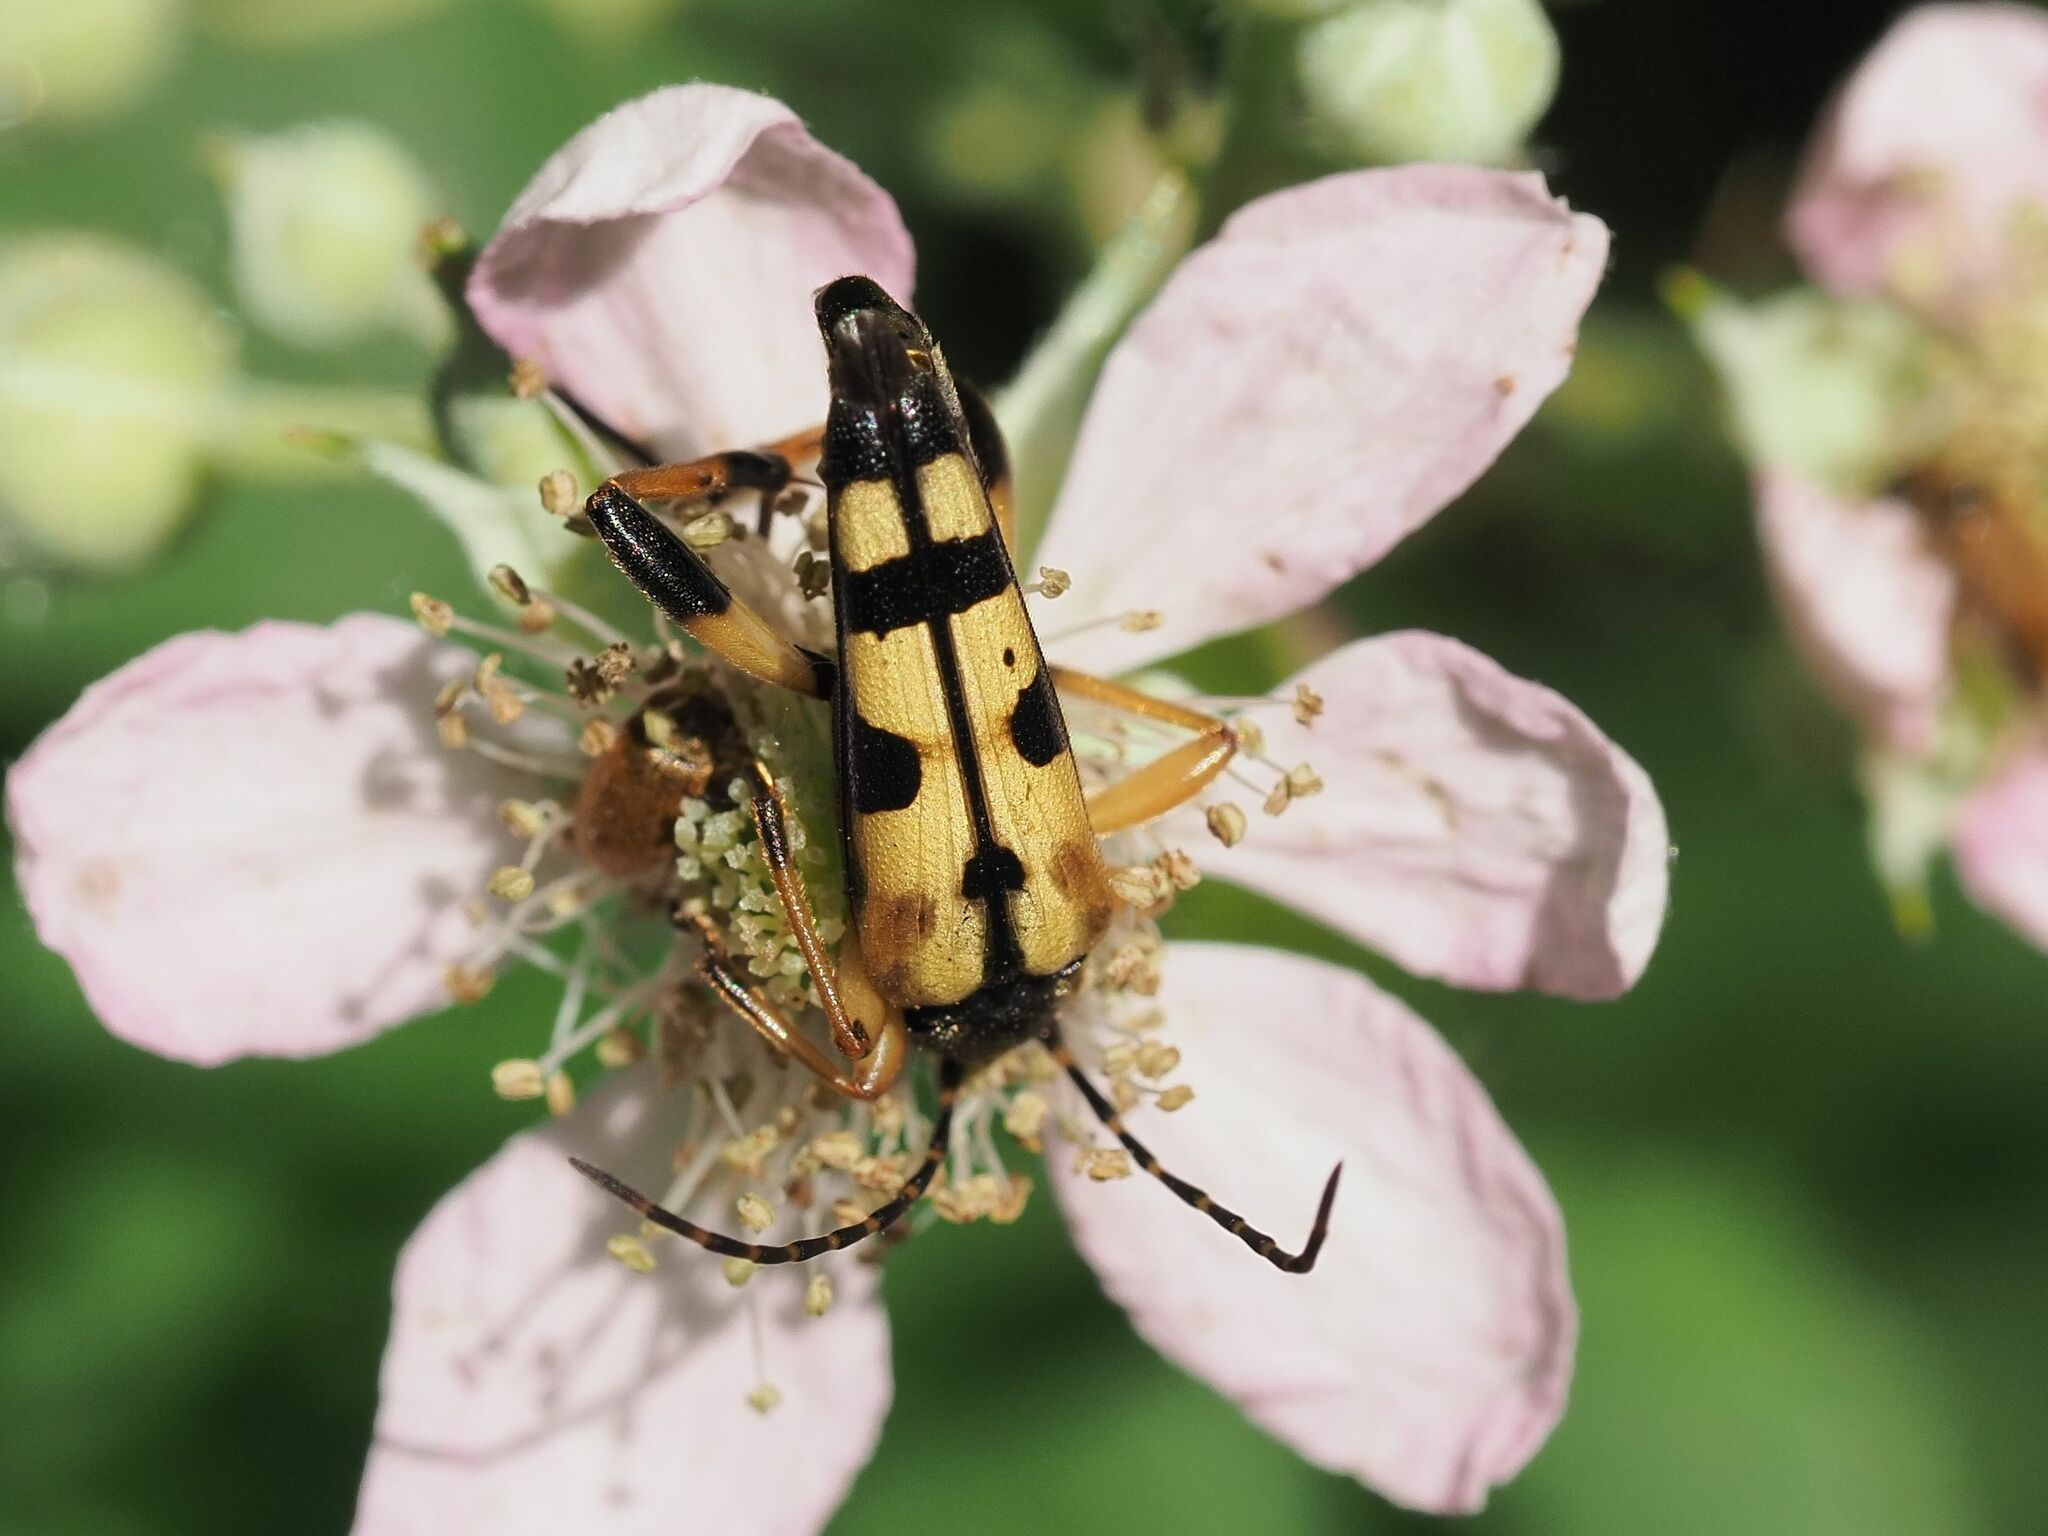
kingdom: Animalia
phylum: Arthropoda
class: Insecta
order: Coleoptera
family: Cerambycidae
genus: Rutpela
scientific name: Rutpela maculata
